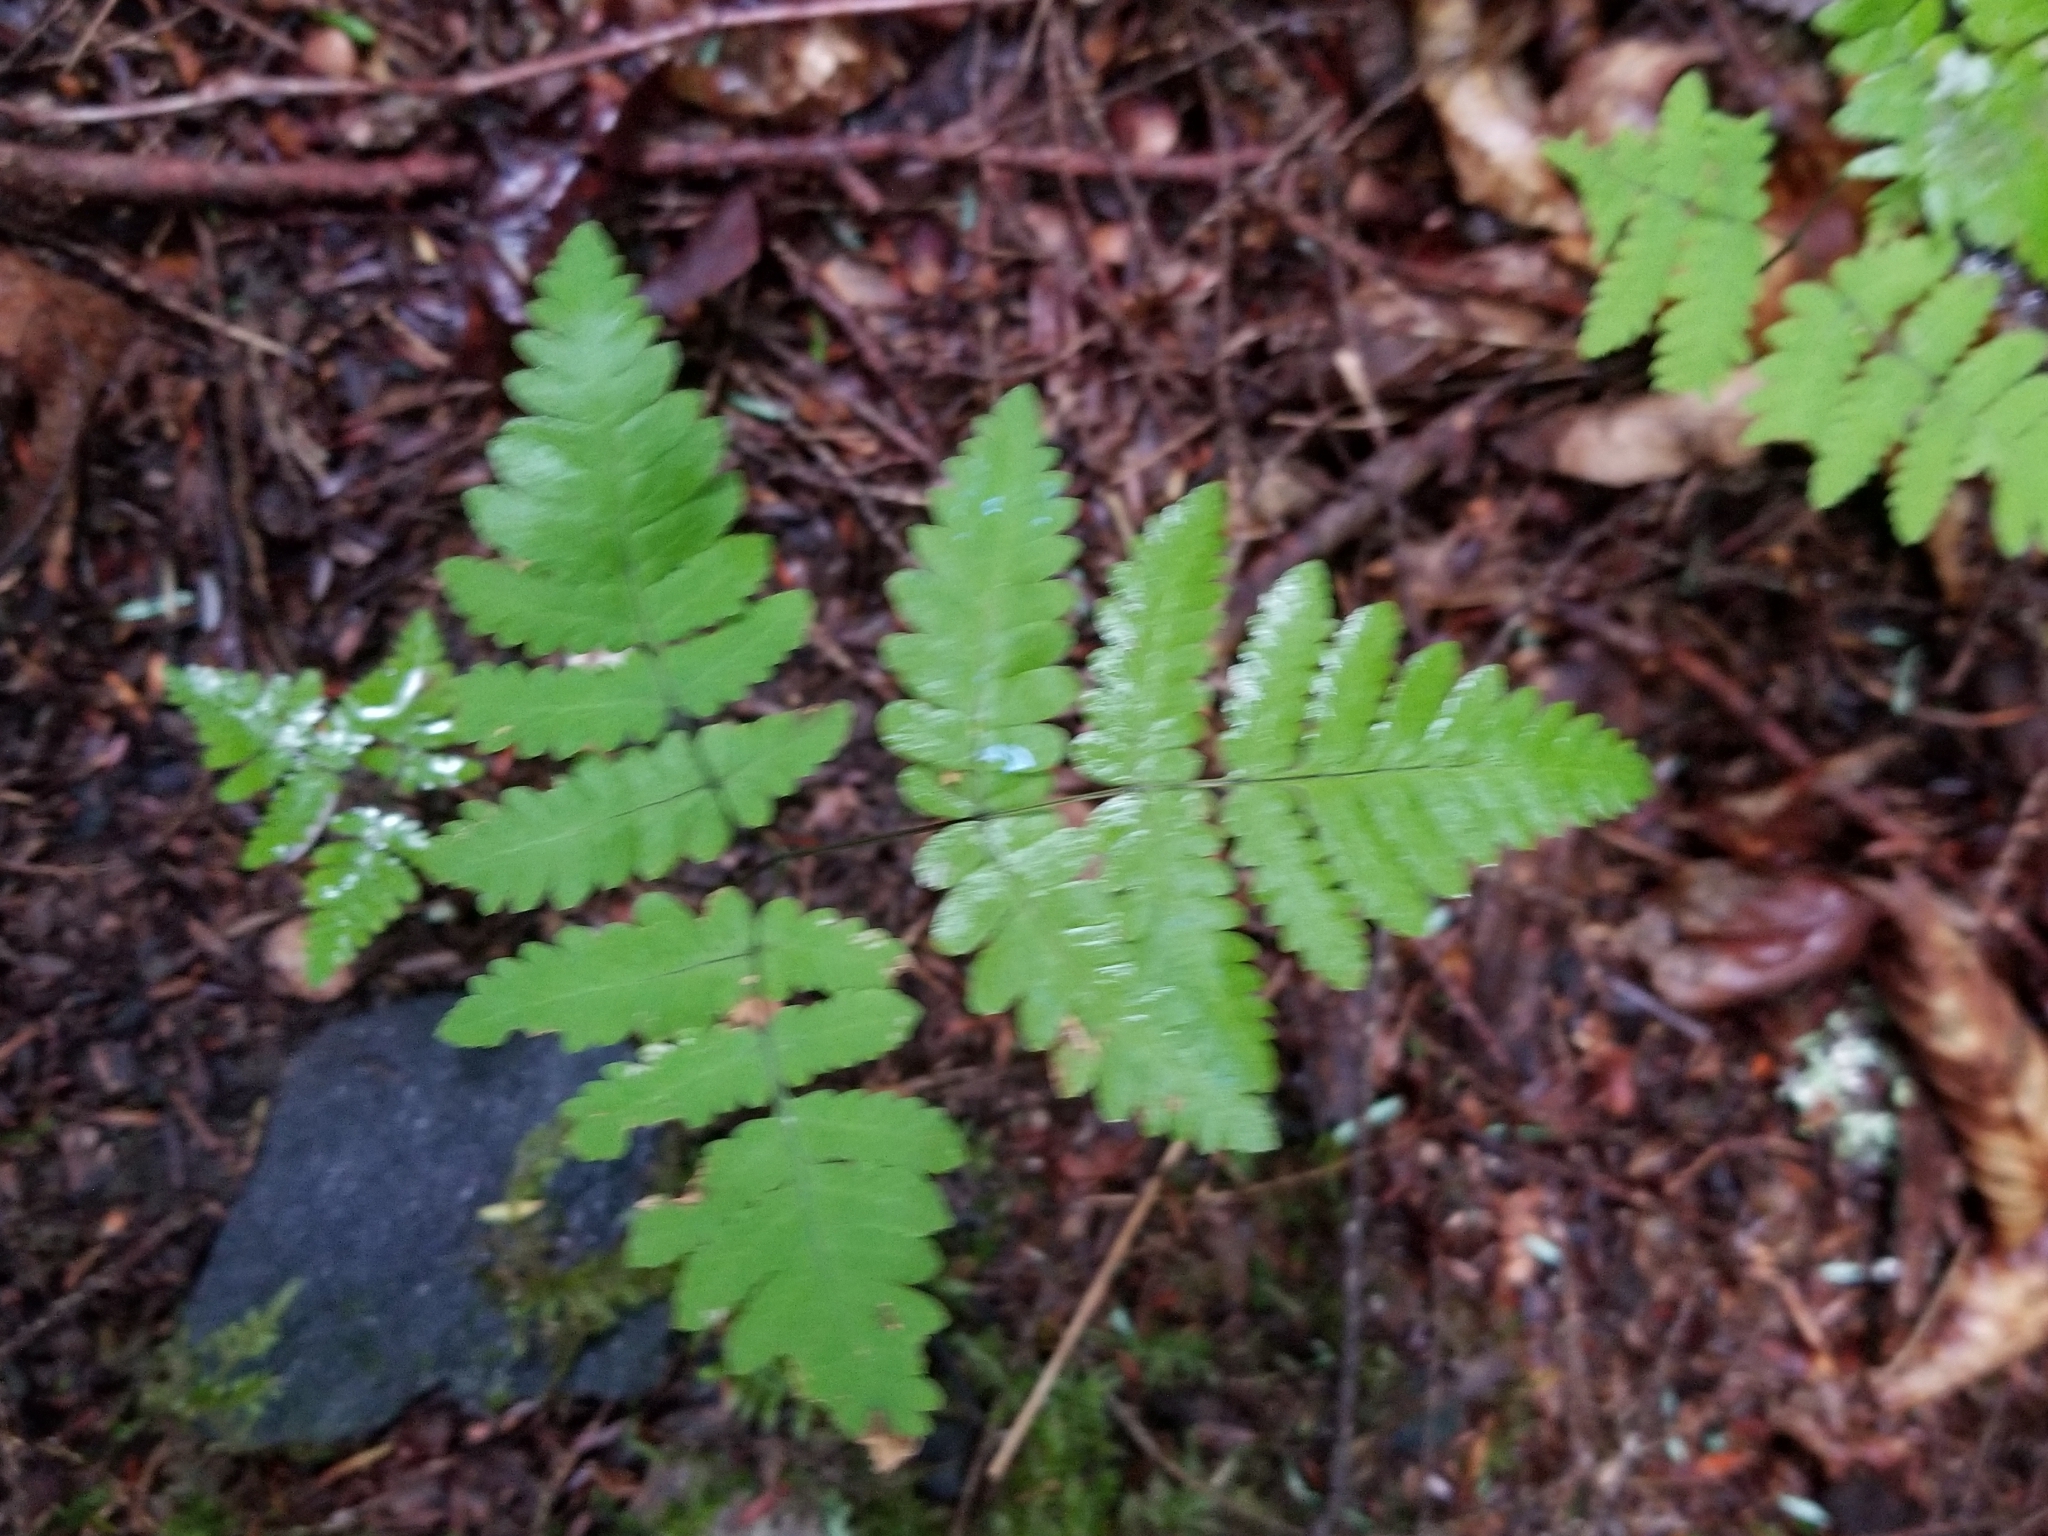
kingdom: Plantae
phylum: Tracheophyta
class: Polypodiopsida
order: Polypodiales
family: Cystopteridaceae
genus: Gymnocarpium
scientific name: Gymnocarpium dryopteris
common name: Oak fern
